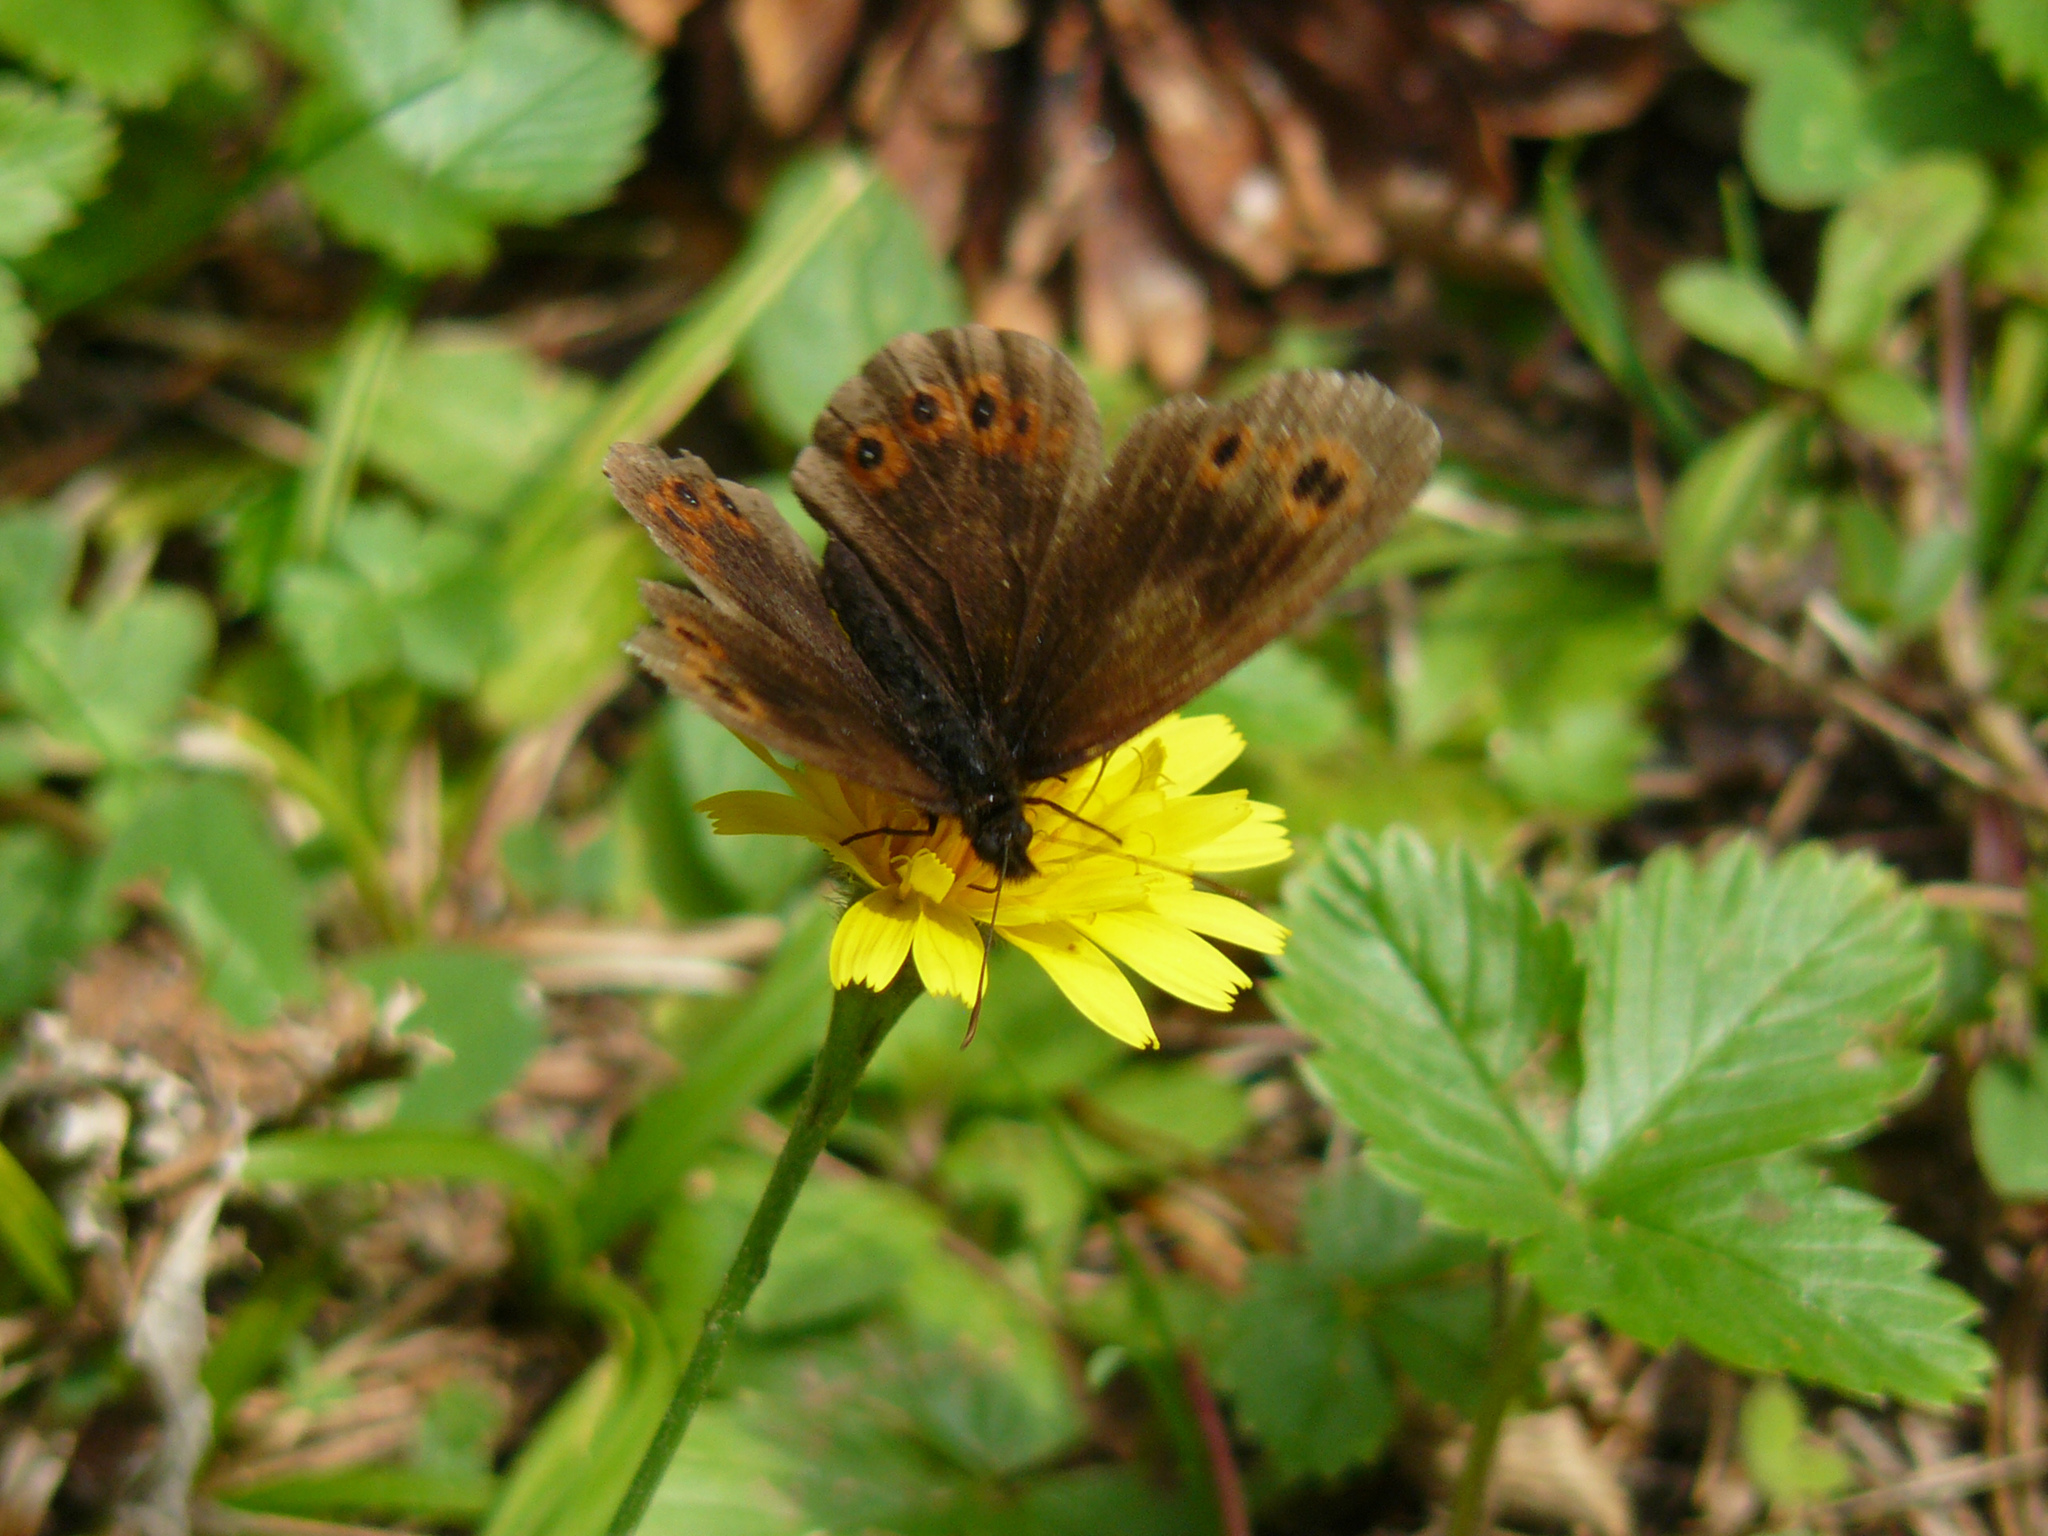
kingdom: Animalia
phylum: Arthropoda
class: Insecta
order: Lepidoptera
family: Nymphalidae
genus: Erebia
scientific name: Erebia ligea
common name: Arran brown
